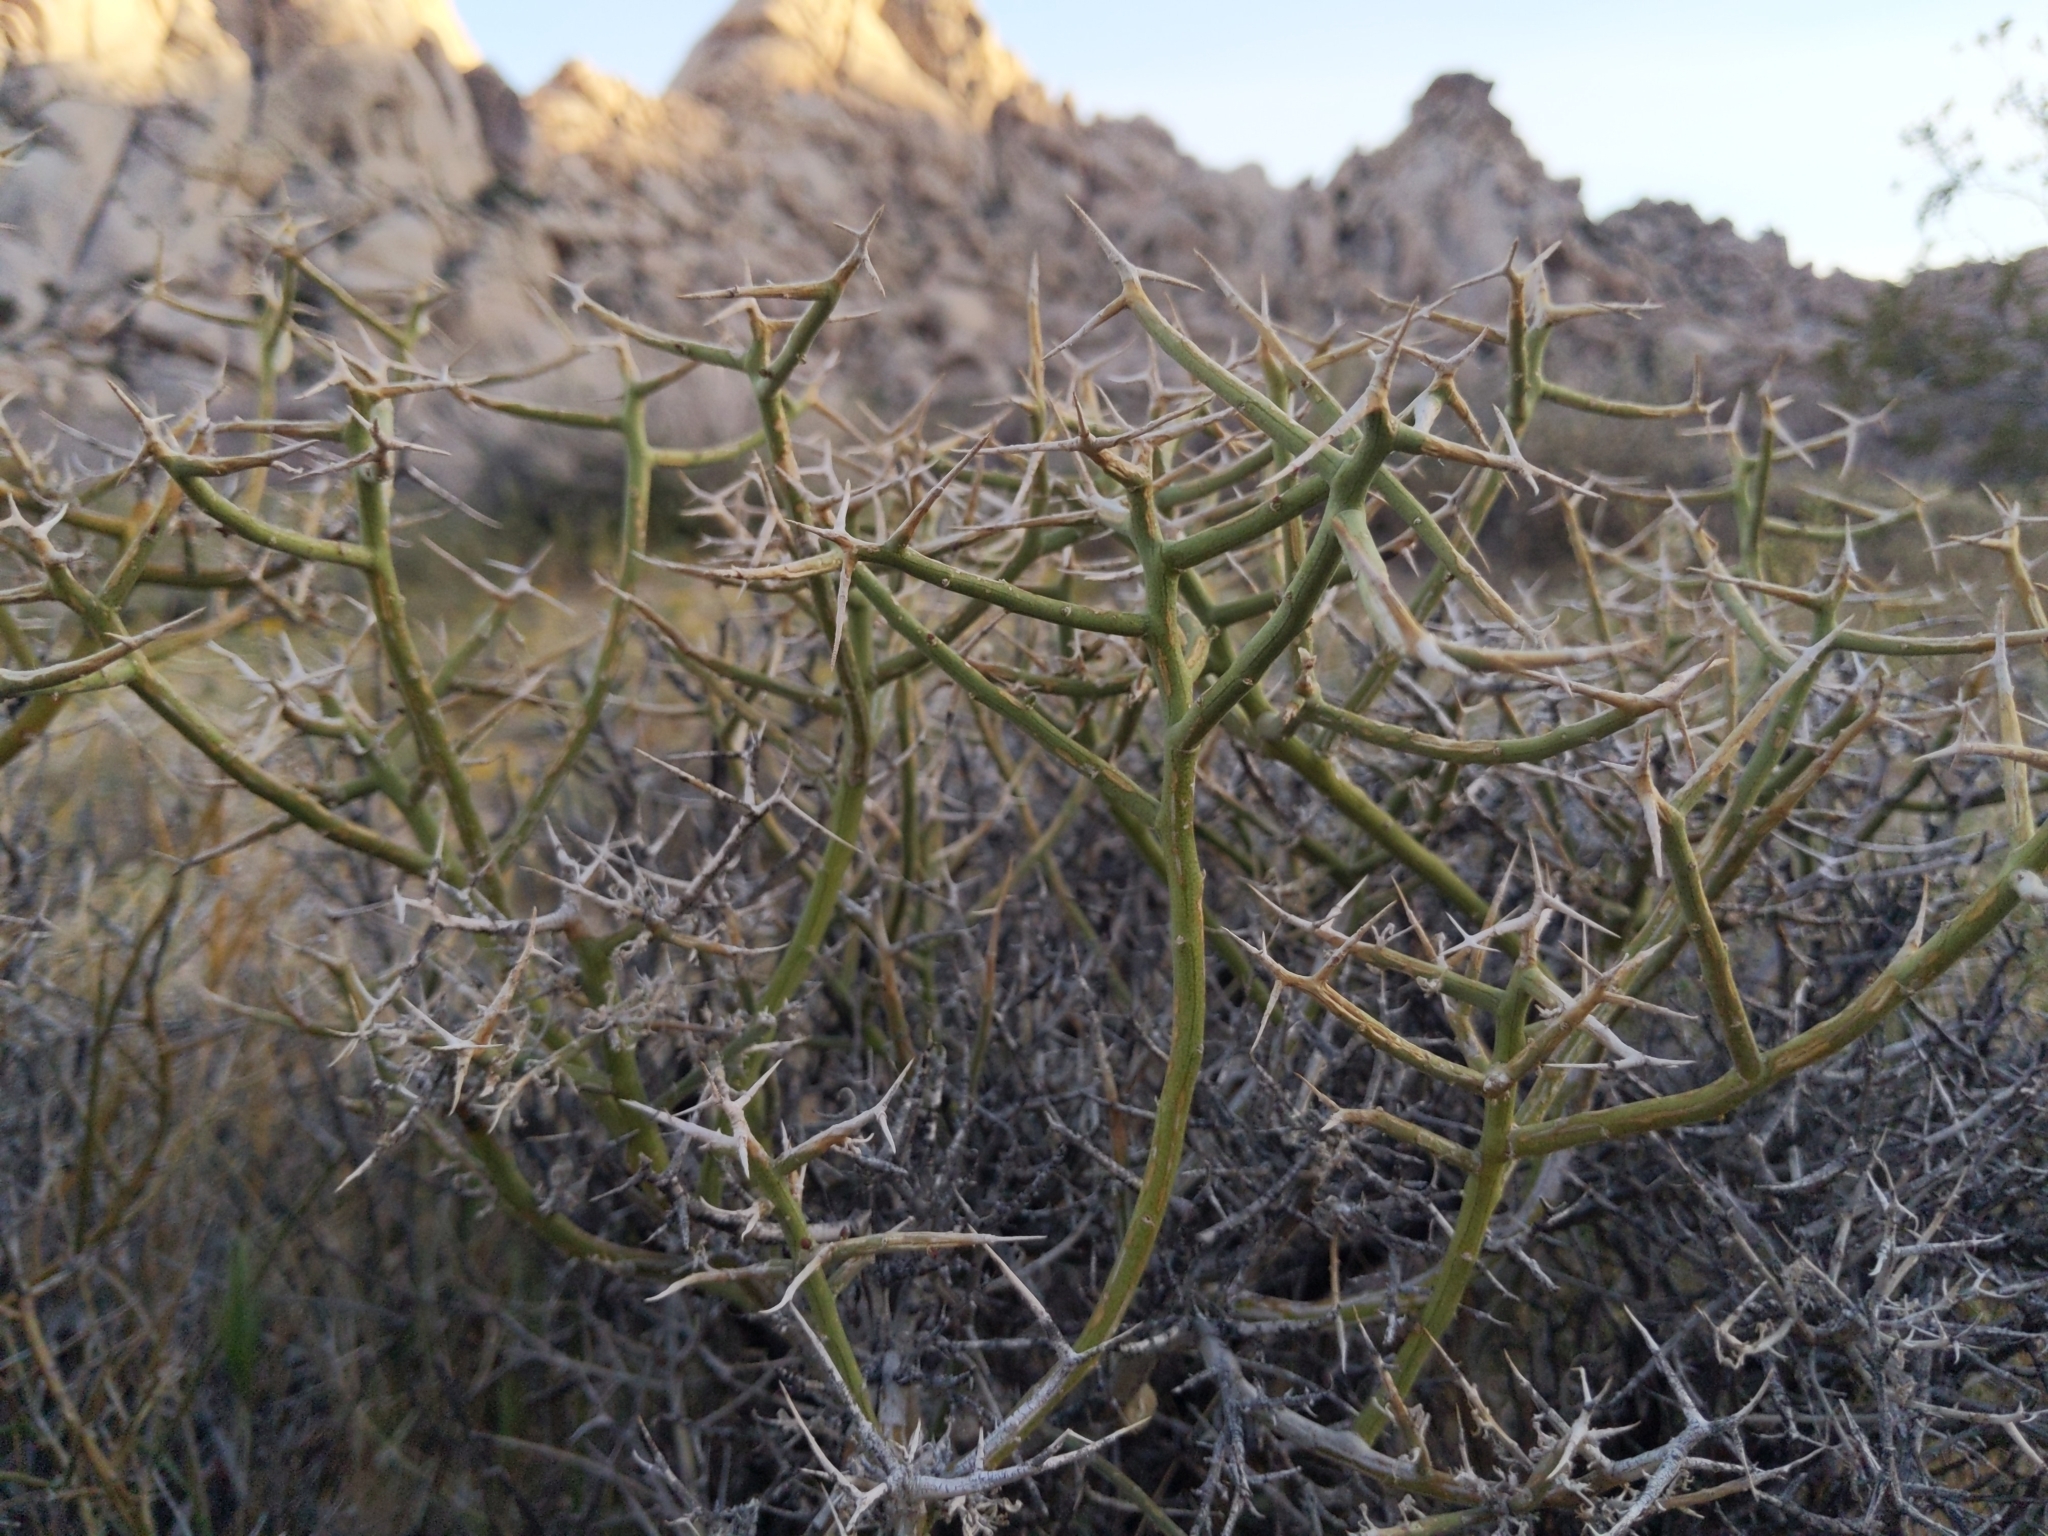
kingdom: Plantae
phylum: Tracheophyta
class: Magnoliopsida
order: Lamiales
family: Oleaceae
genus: Menodora
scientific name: Menodora spinescens
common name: Spiny menodora
